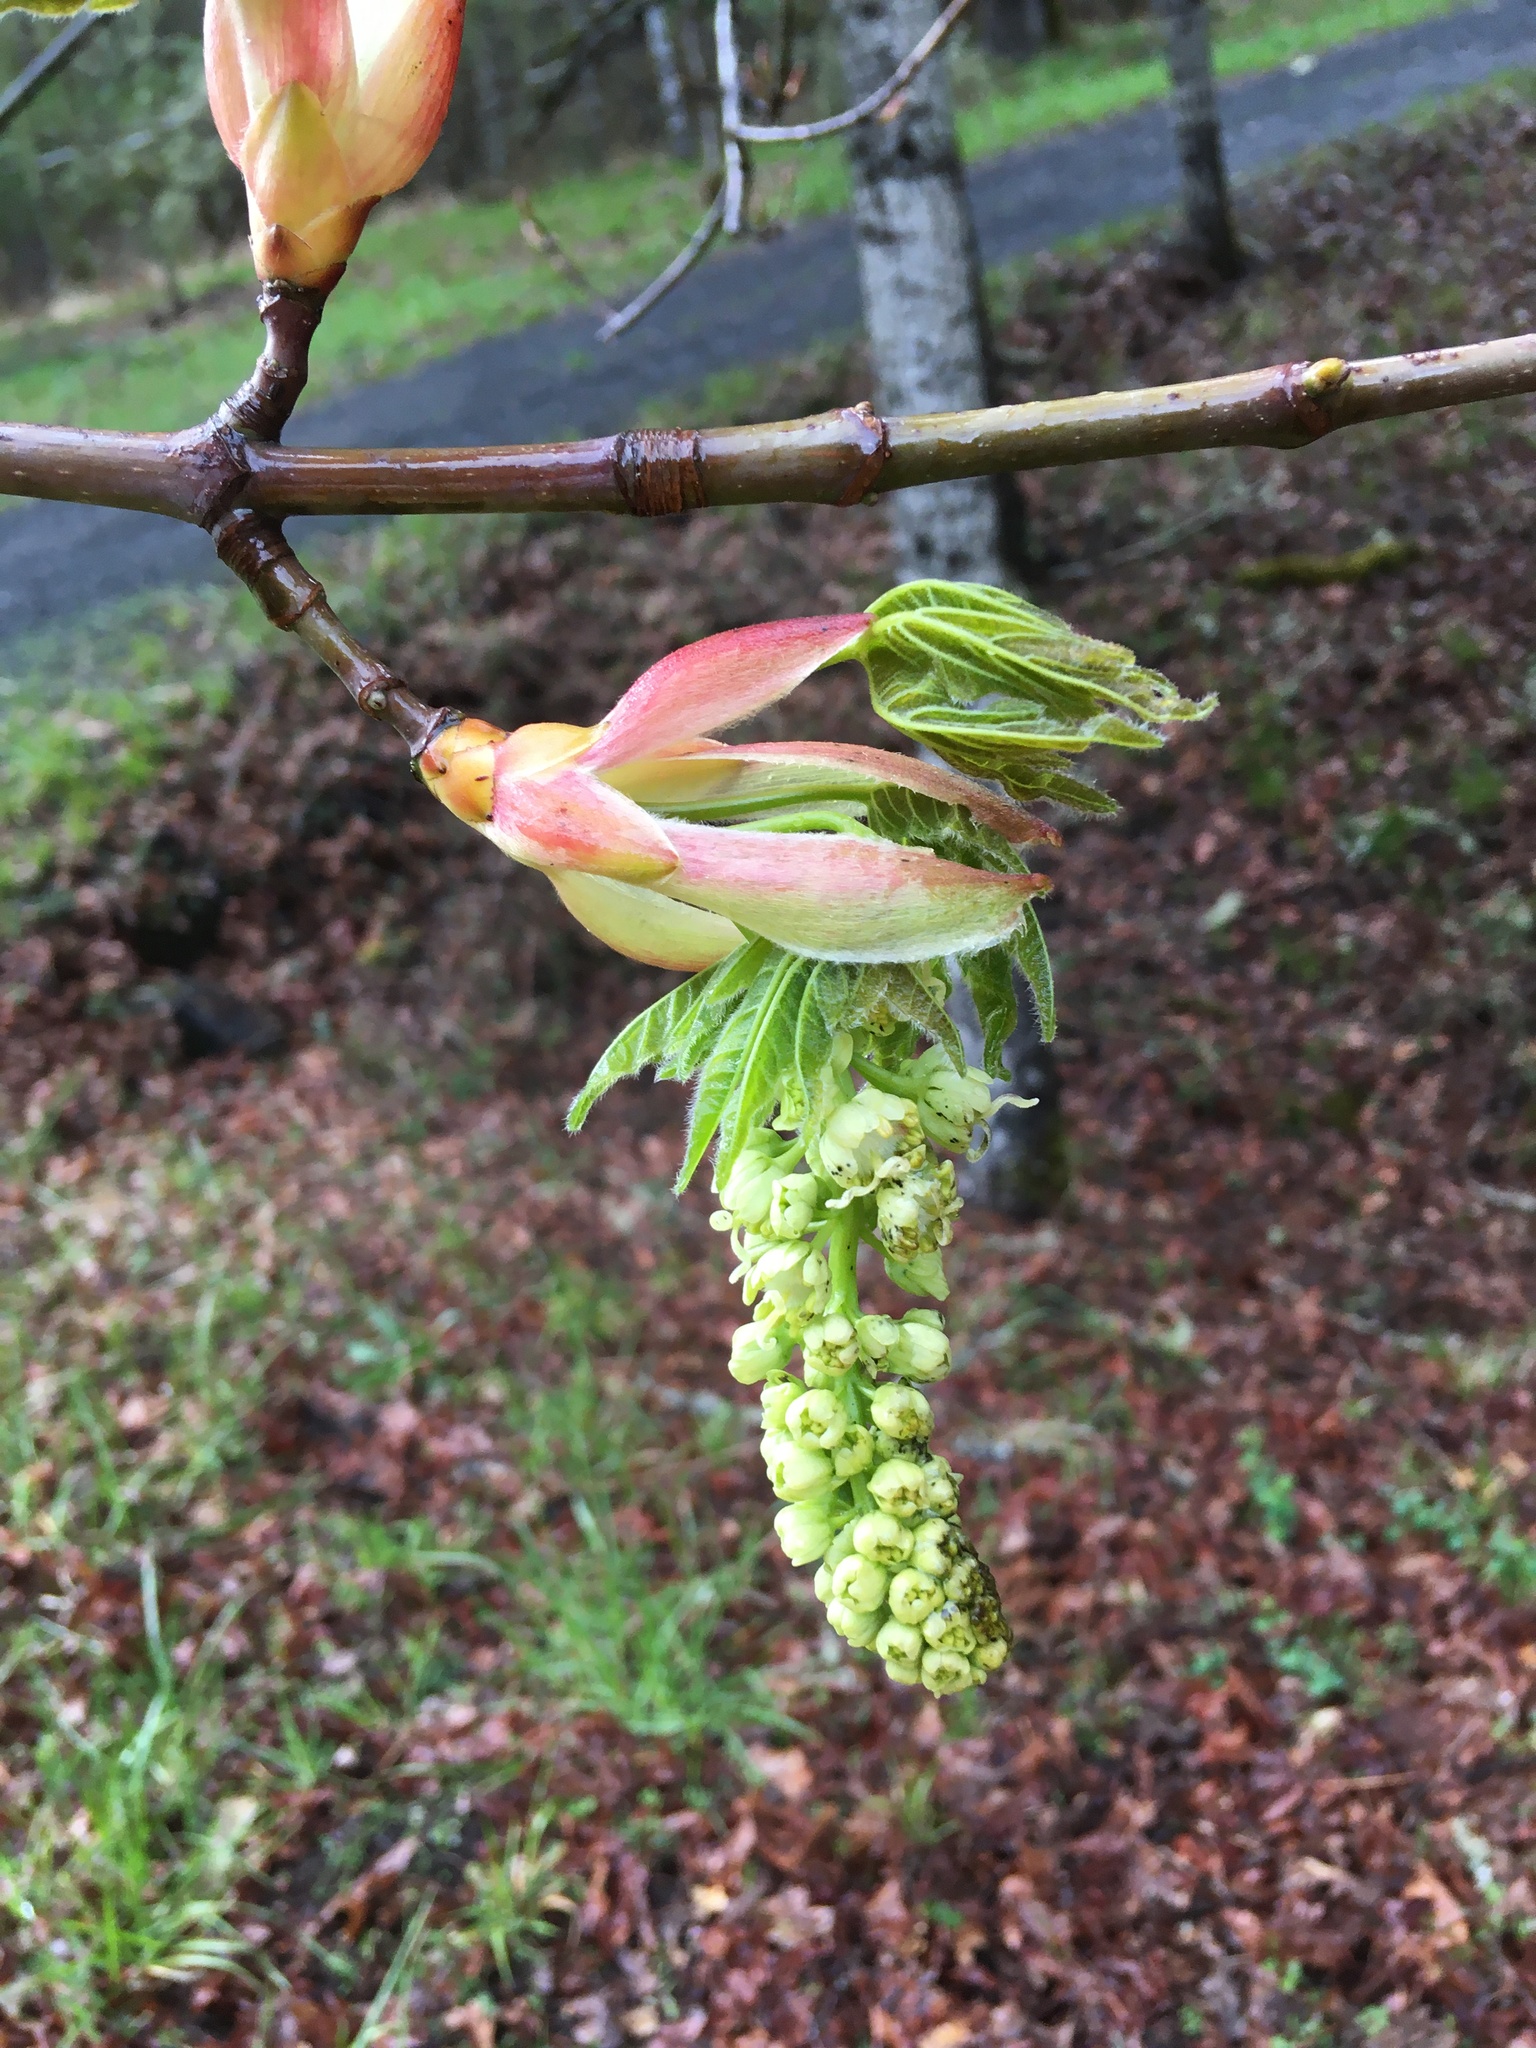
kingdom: Plantae
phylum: Tracheophyta
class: Magnoliopsida
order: Sapindales
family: Sapindaceae
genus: Acer
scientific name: Acer macrophyllum
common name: Oregon maple
